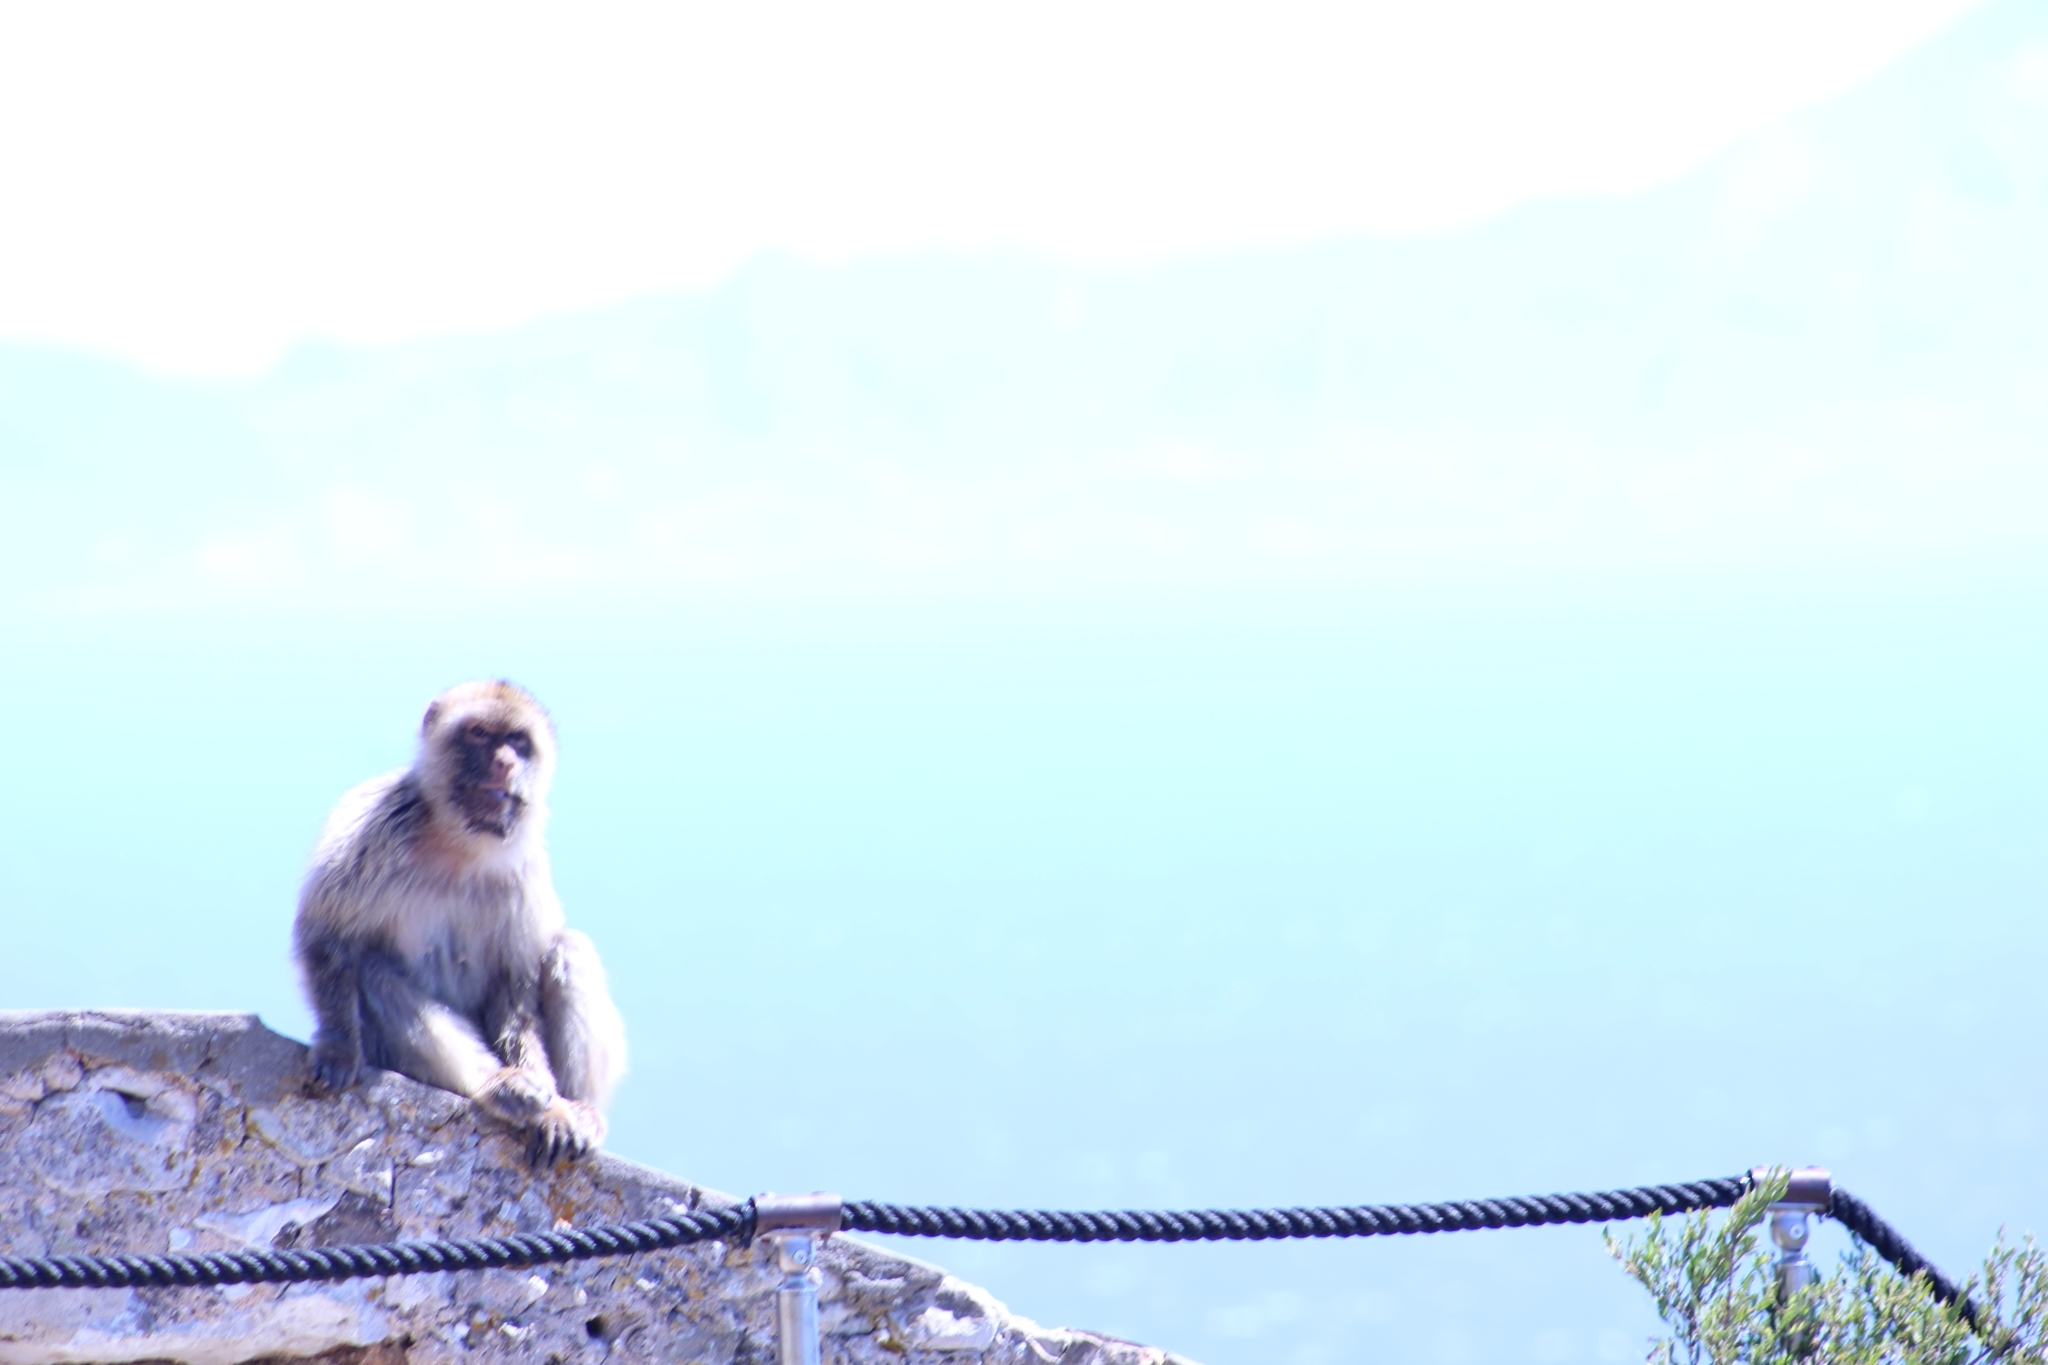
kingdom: Animalia
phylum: Chordata
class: Mammalia
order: Primates
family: Cercopithecidae
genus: Macaca
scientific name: Macaca sylvanus
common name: Barbary macaque
